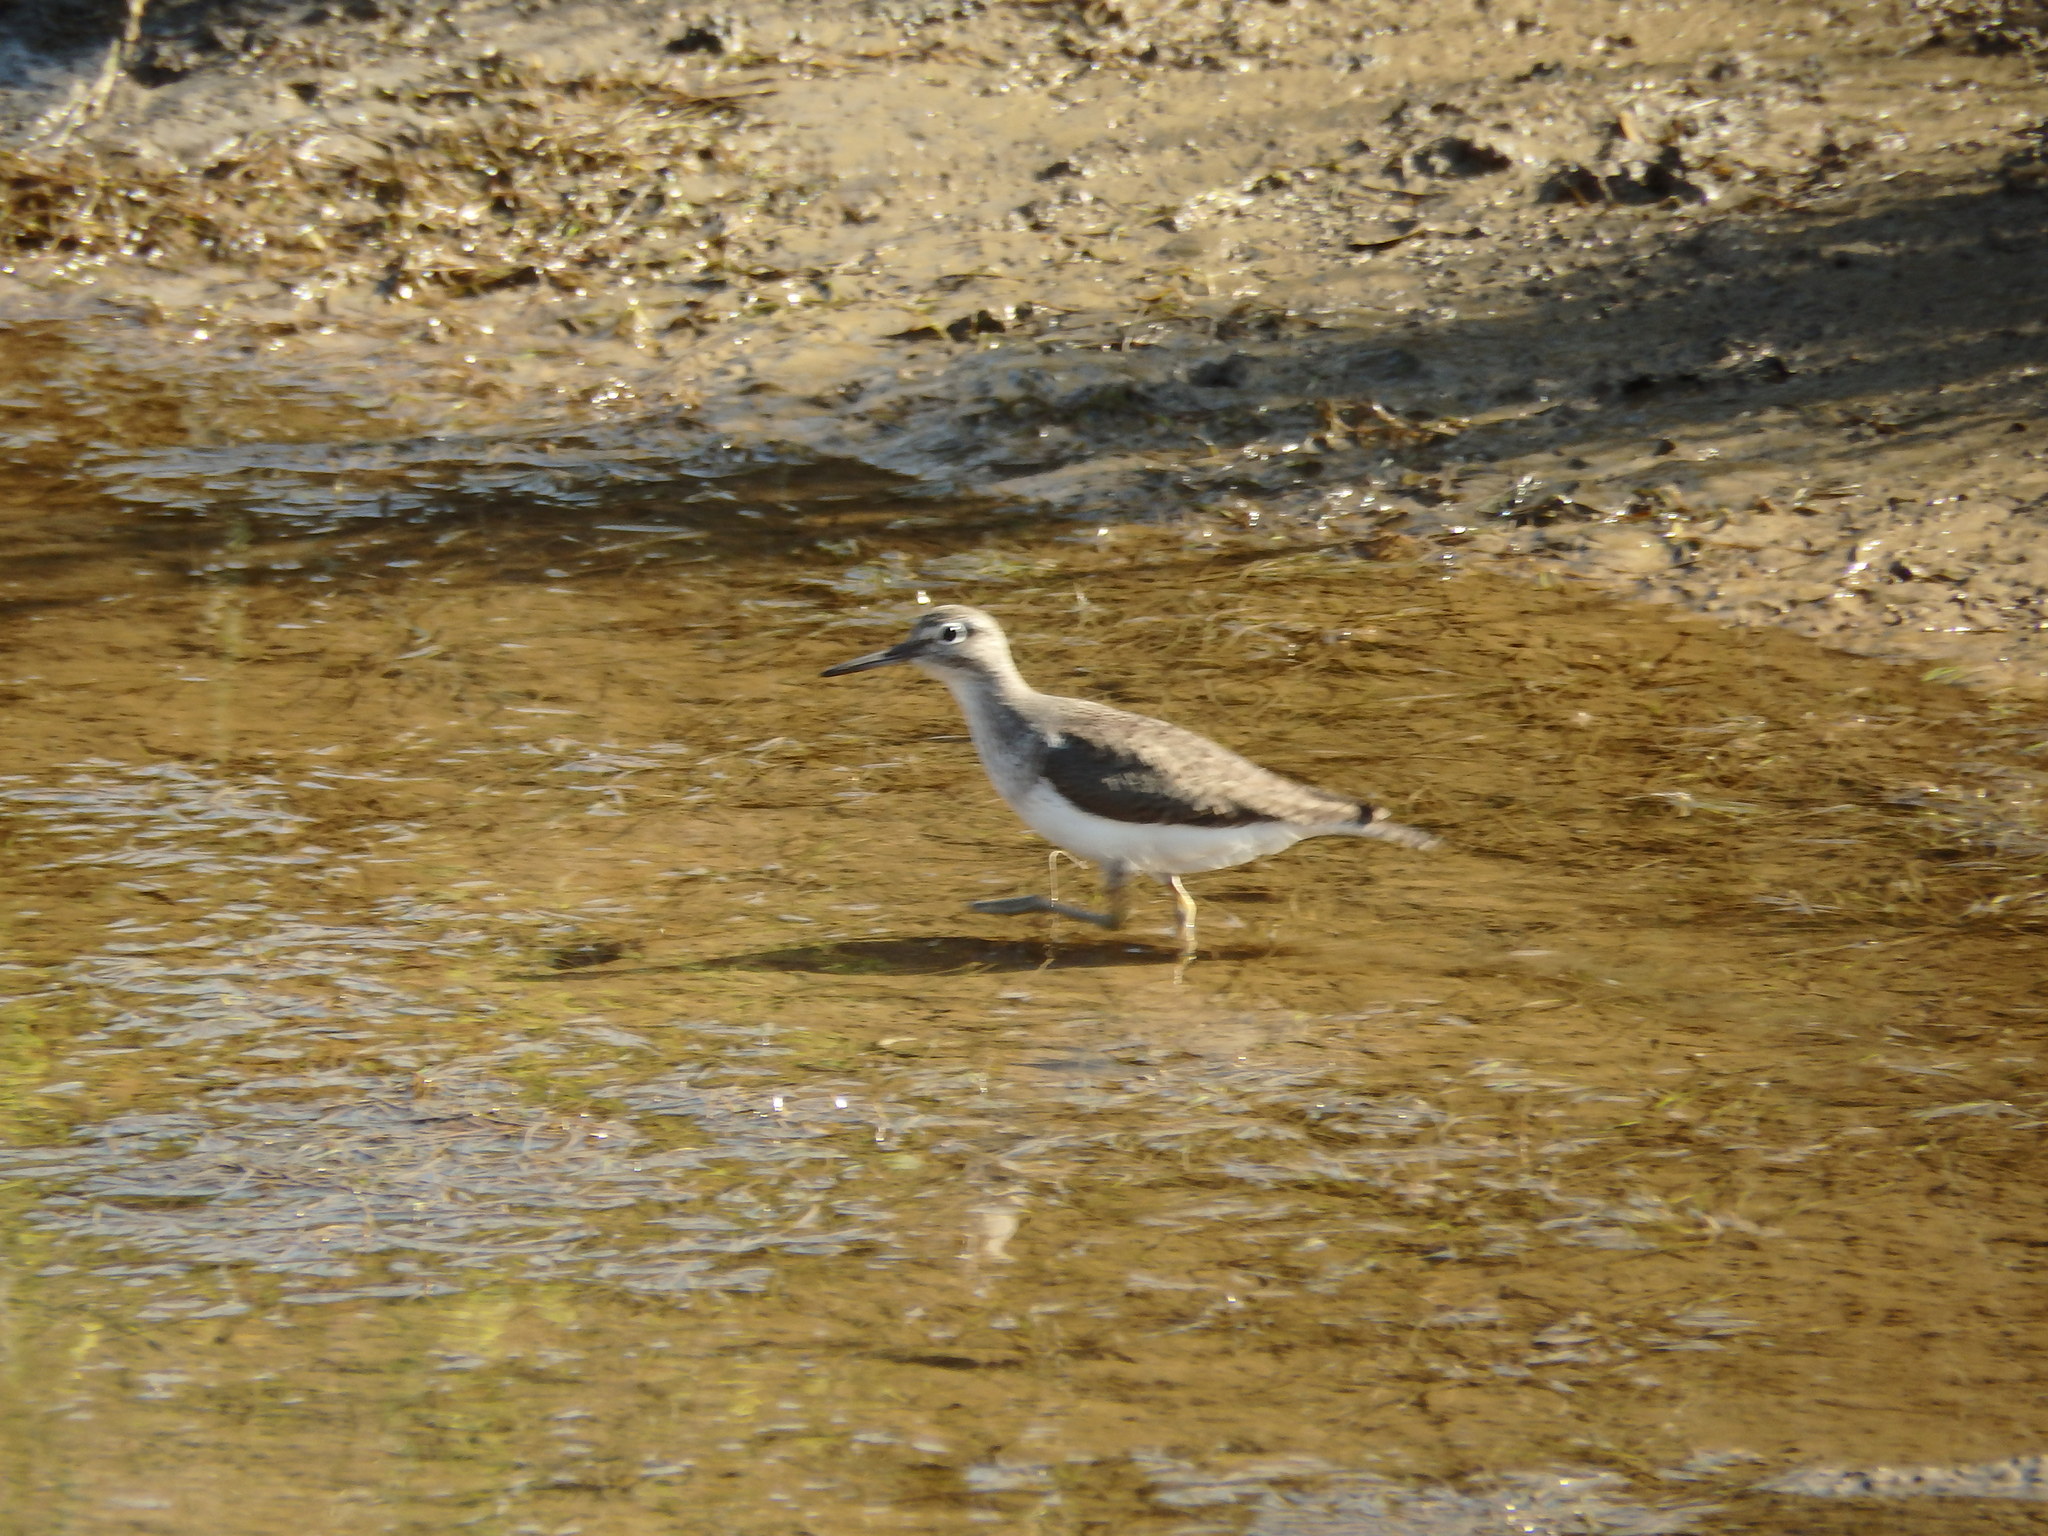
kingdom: Animalia
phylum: Chordata
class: Aves
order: Charadriiformes
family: Scolopacidae
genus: Actitis
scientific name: Actitis hypoleucos
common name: Common sandpiper
